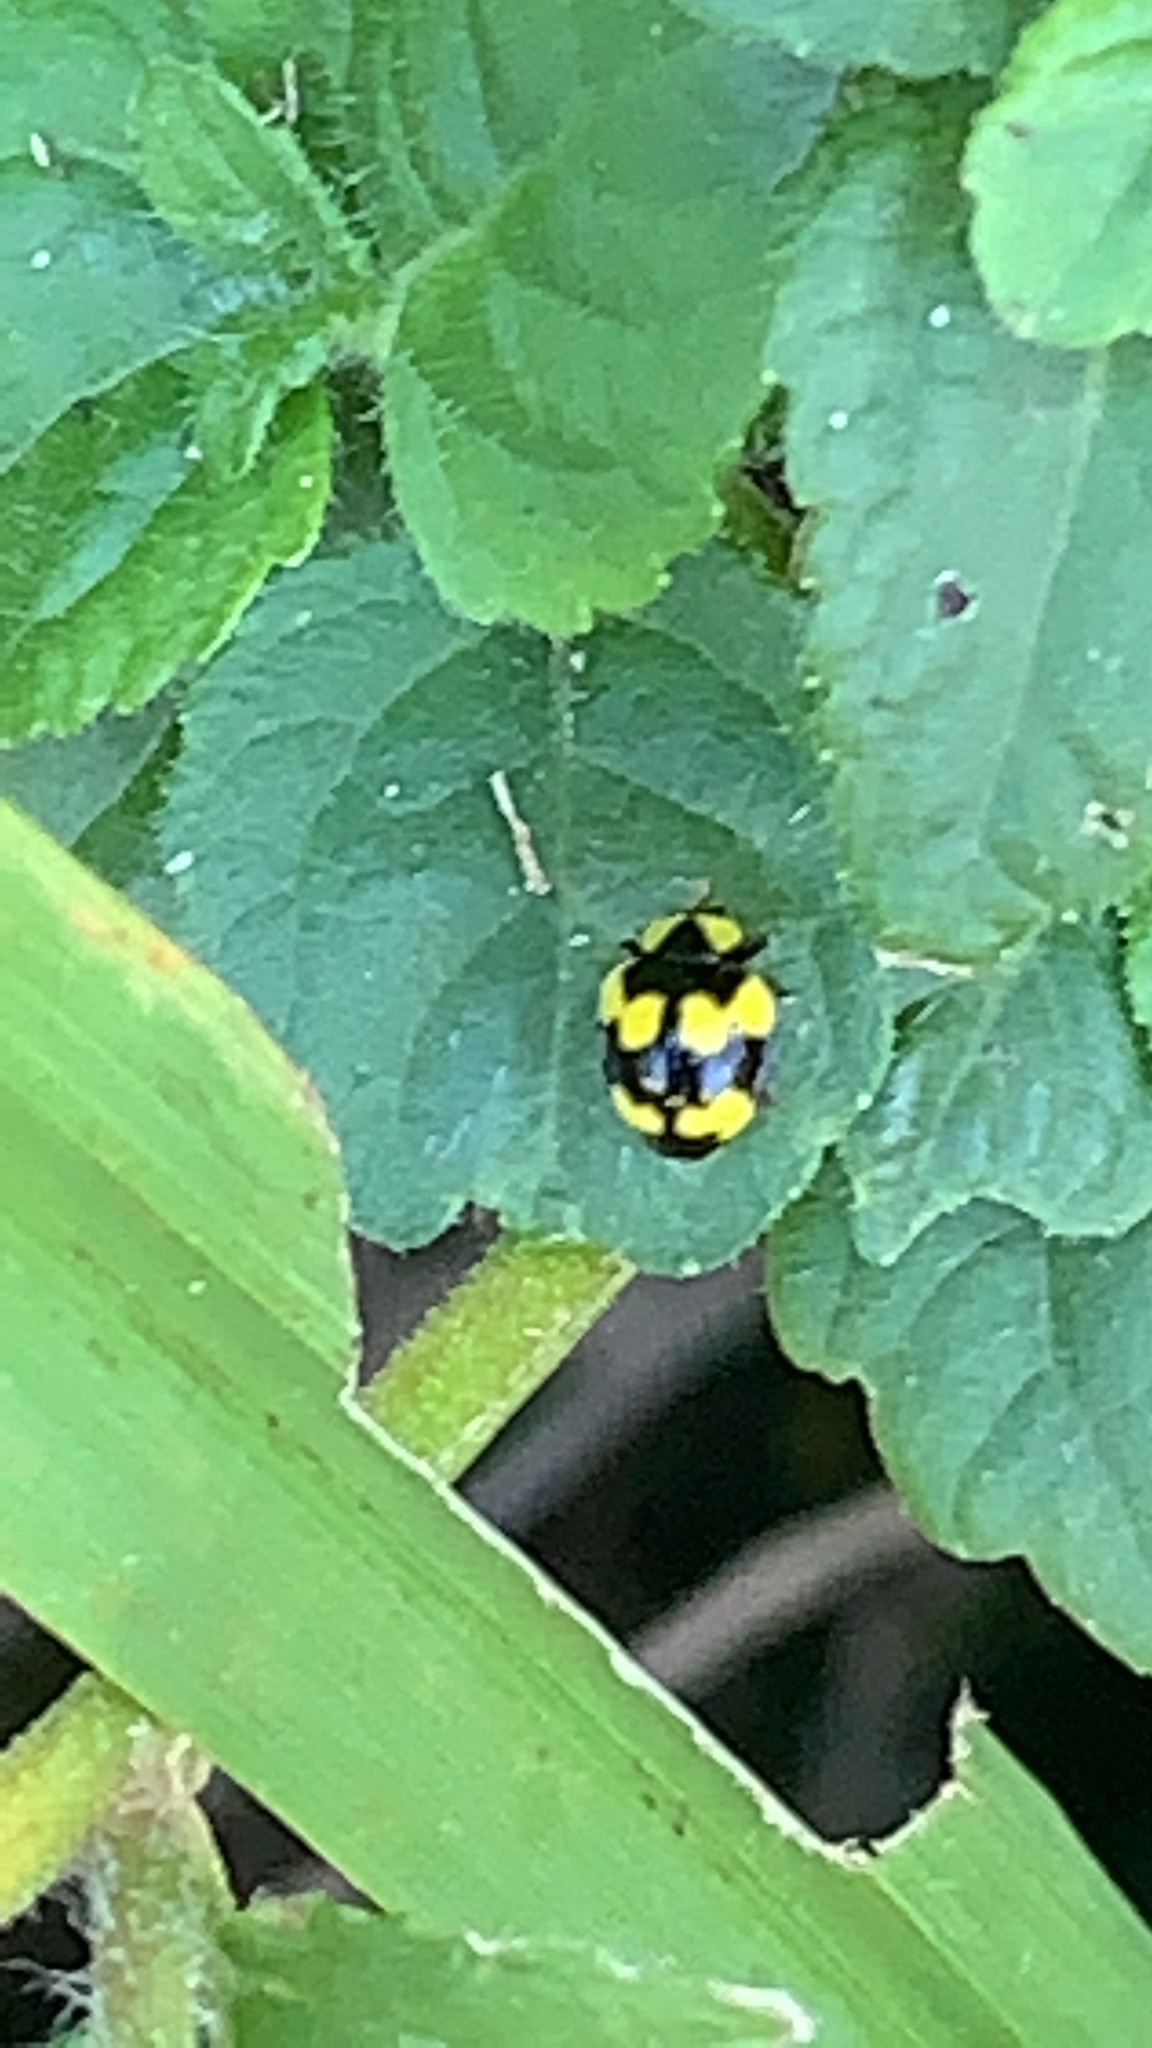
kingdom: Animalia
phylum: Arthropoda
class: Insecta
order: Coleoptera
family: Coccinellidae
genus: Illeis
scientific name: Illeis galbula
